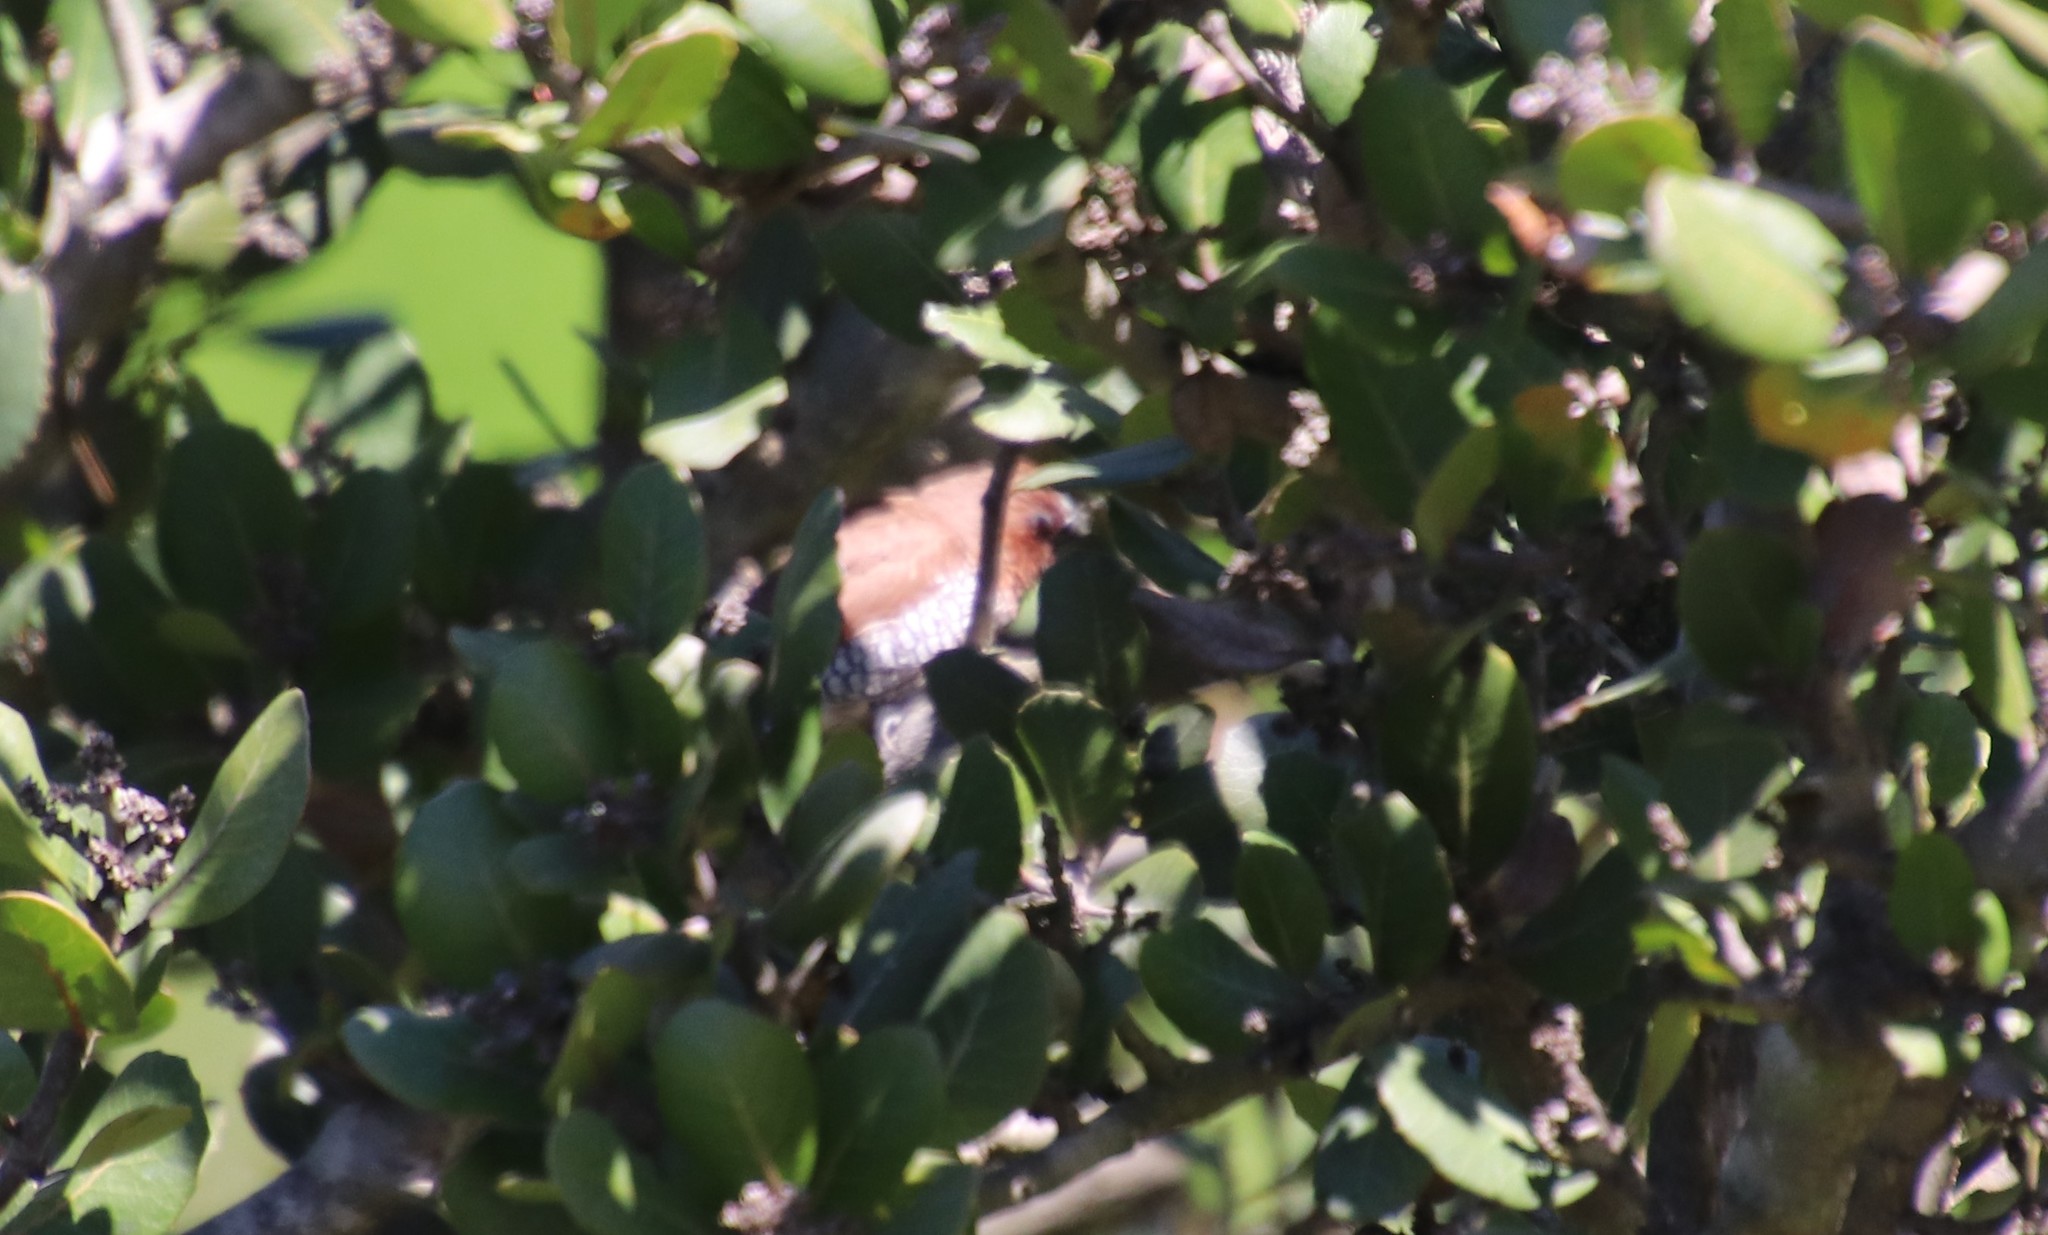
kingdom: Animalia
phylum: Chordata
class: Aves
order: Passeriformes
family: Estrildidae
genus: Lonchura
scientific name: Lonchura punctulata
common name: Scaly-breasted munia
